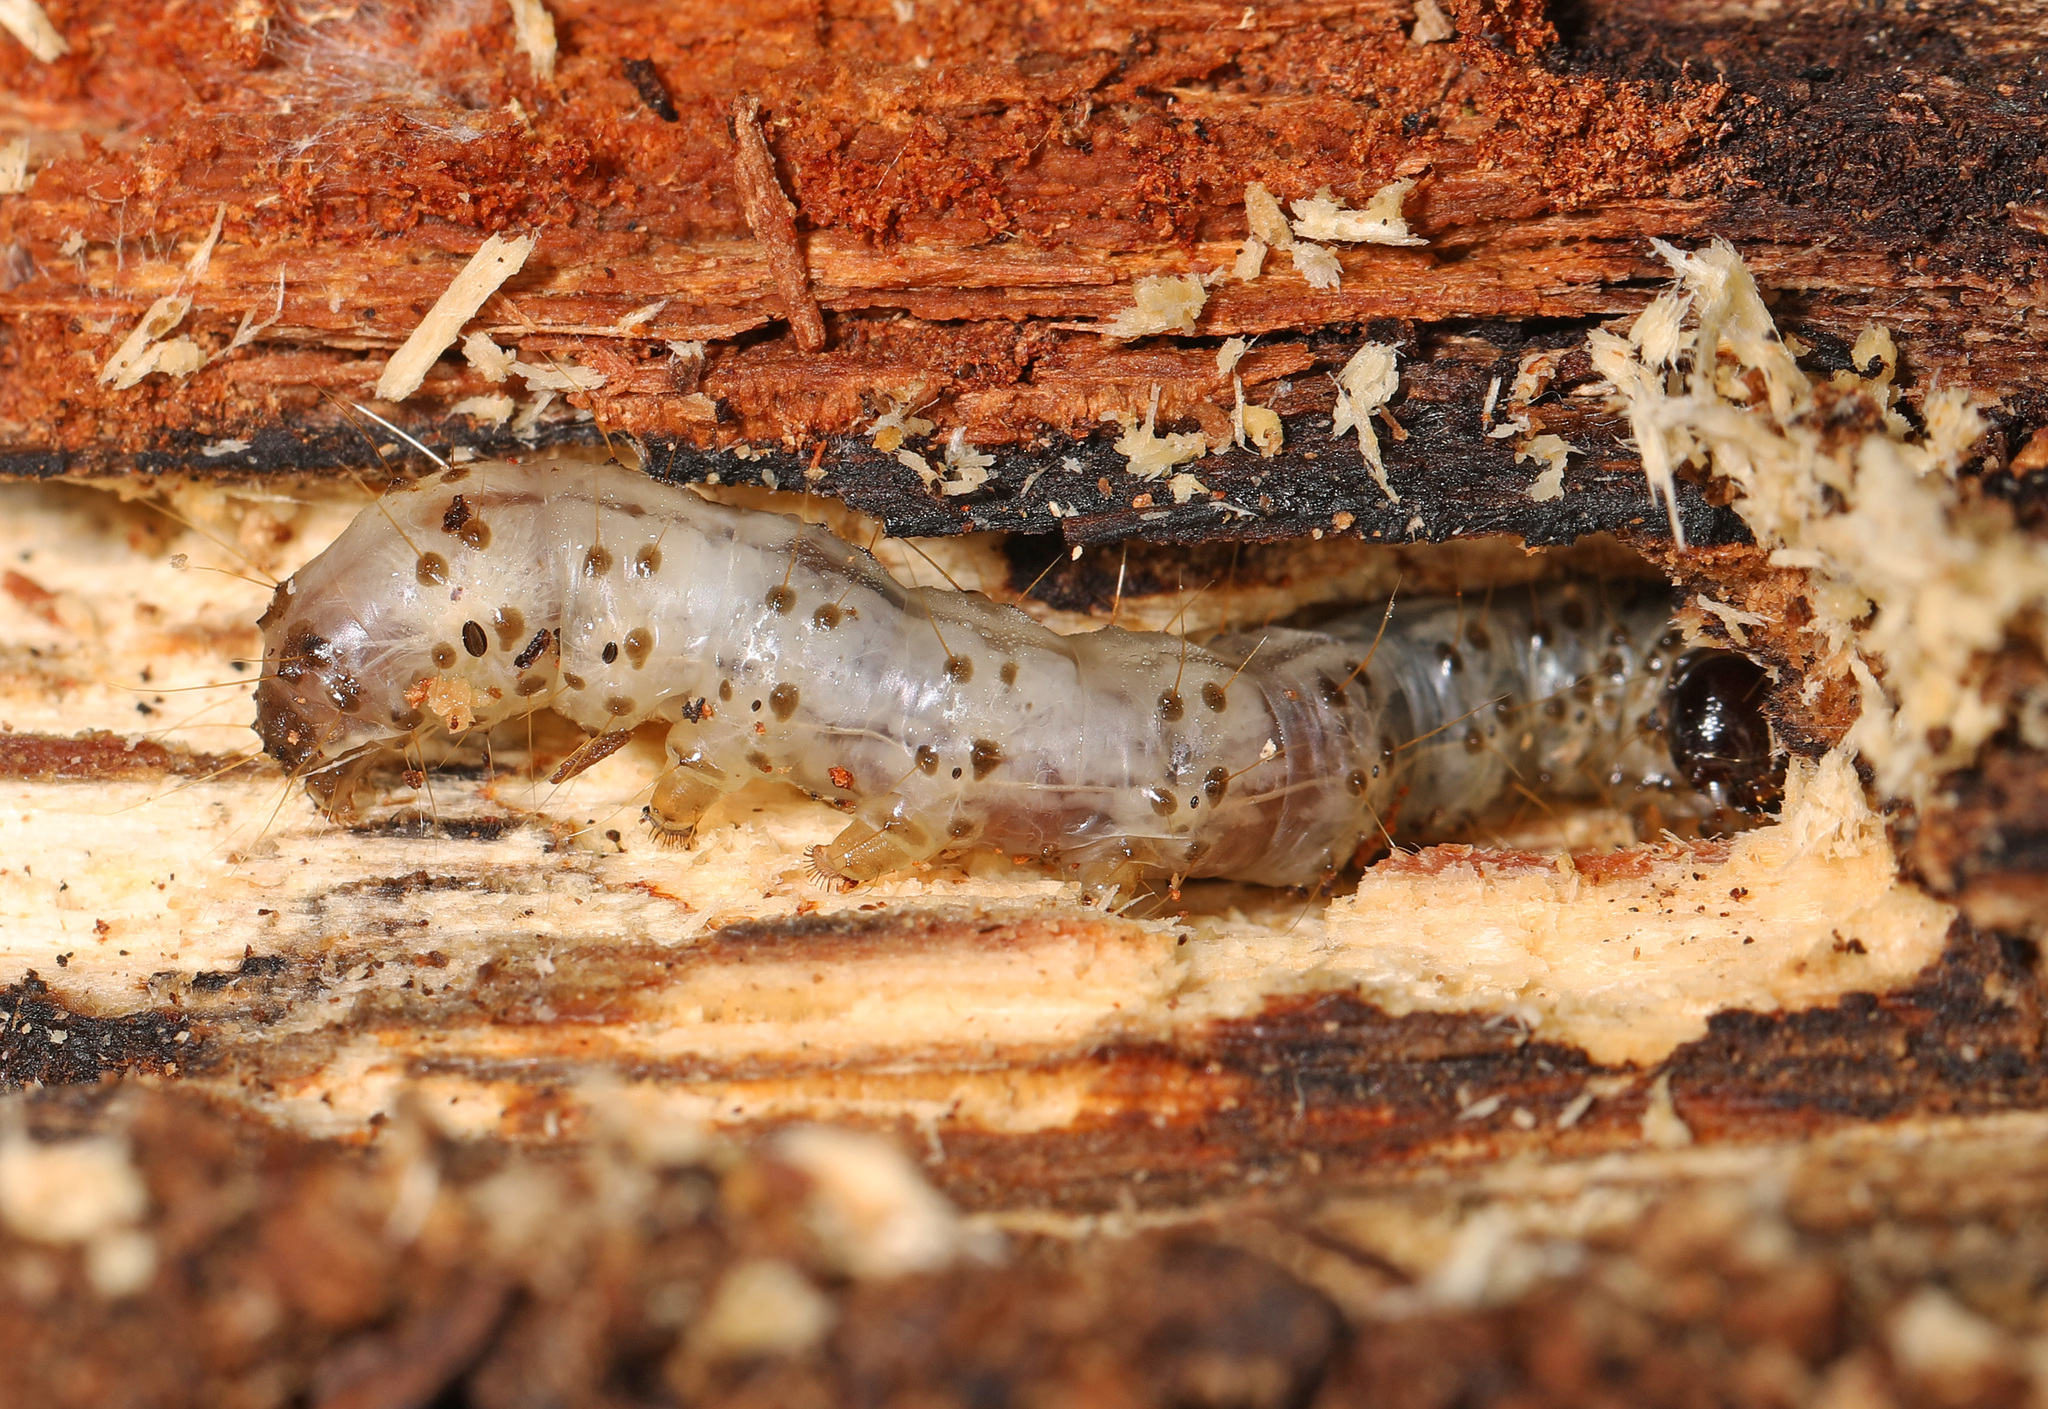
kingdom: Animalia
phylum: Arthropoda
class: Insecta
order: Lepidoptera
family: Erebidae
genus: Scolecocampa
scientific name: Scolecocampa liburna
